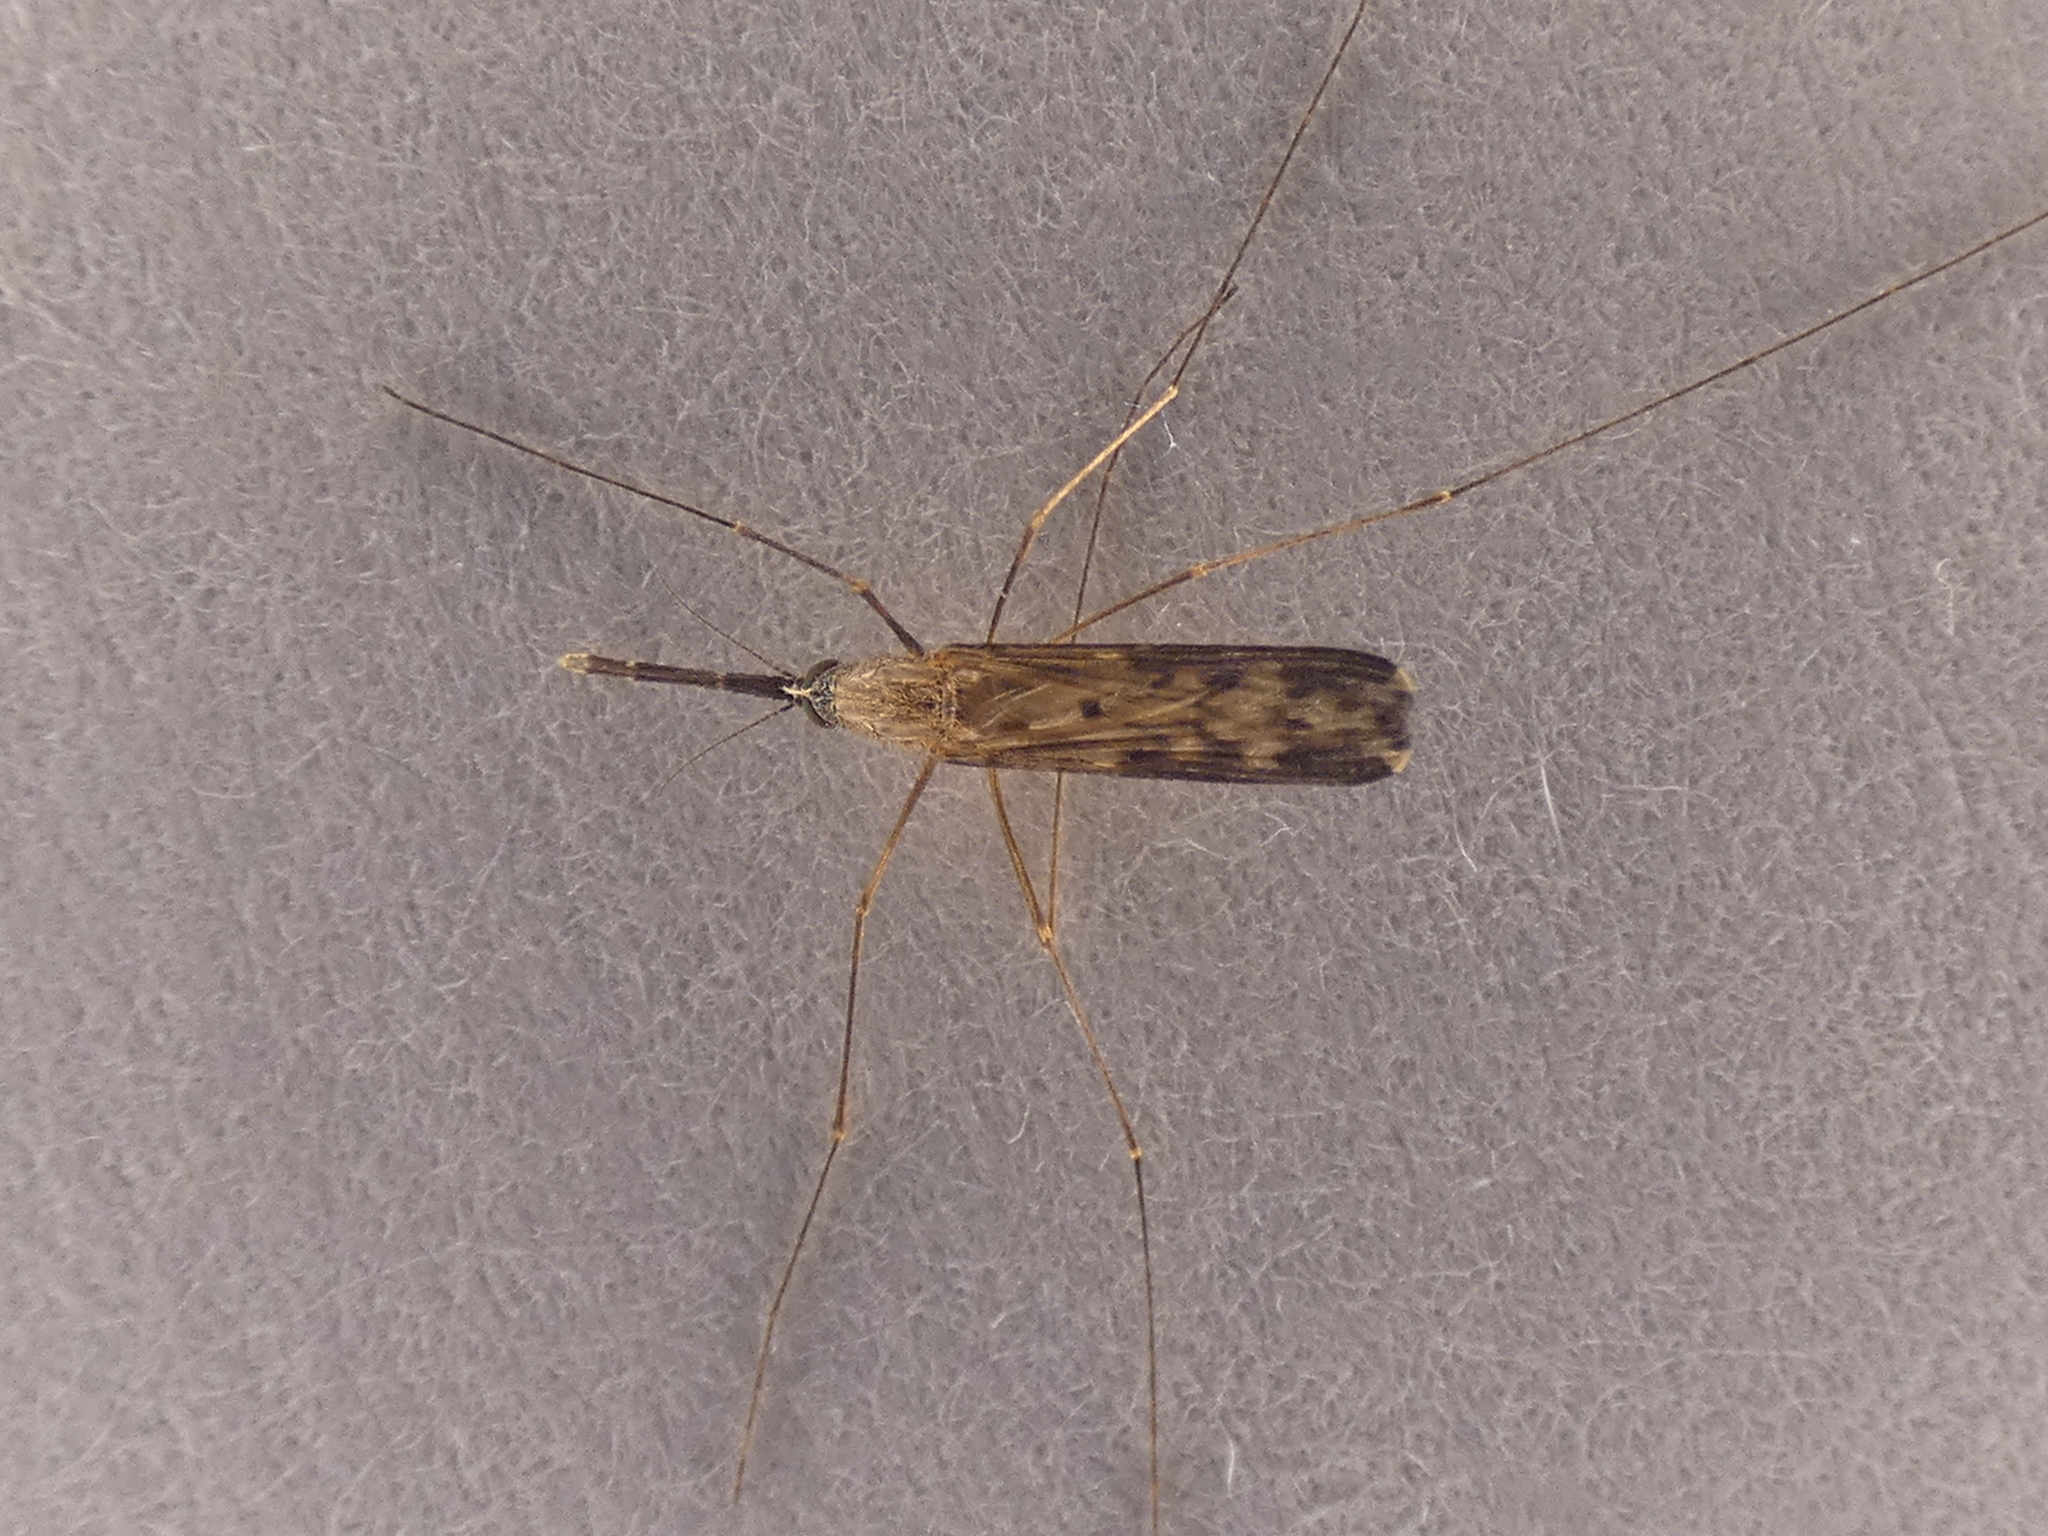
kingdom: Animalia
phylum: Arthropoda
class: Insecta
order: Diptera
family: Culicidae
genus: Anopheles
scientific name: Anopheles
